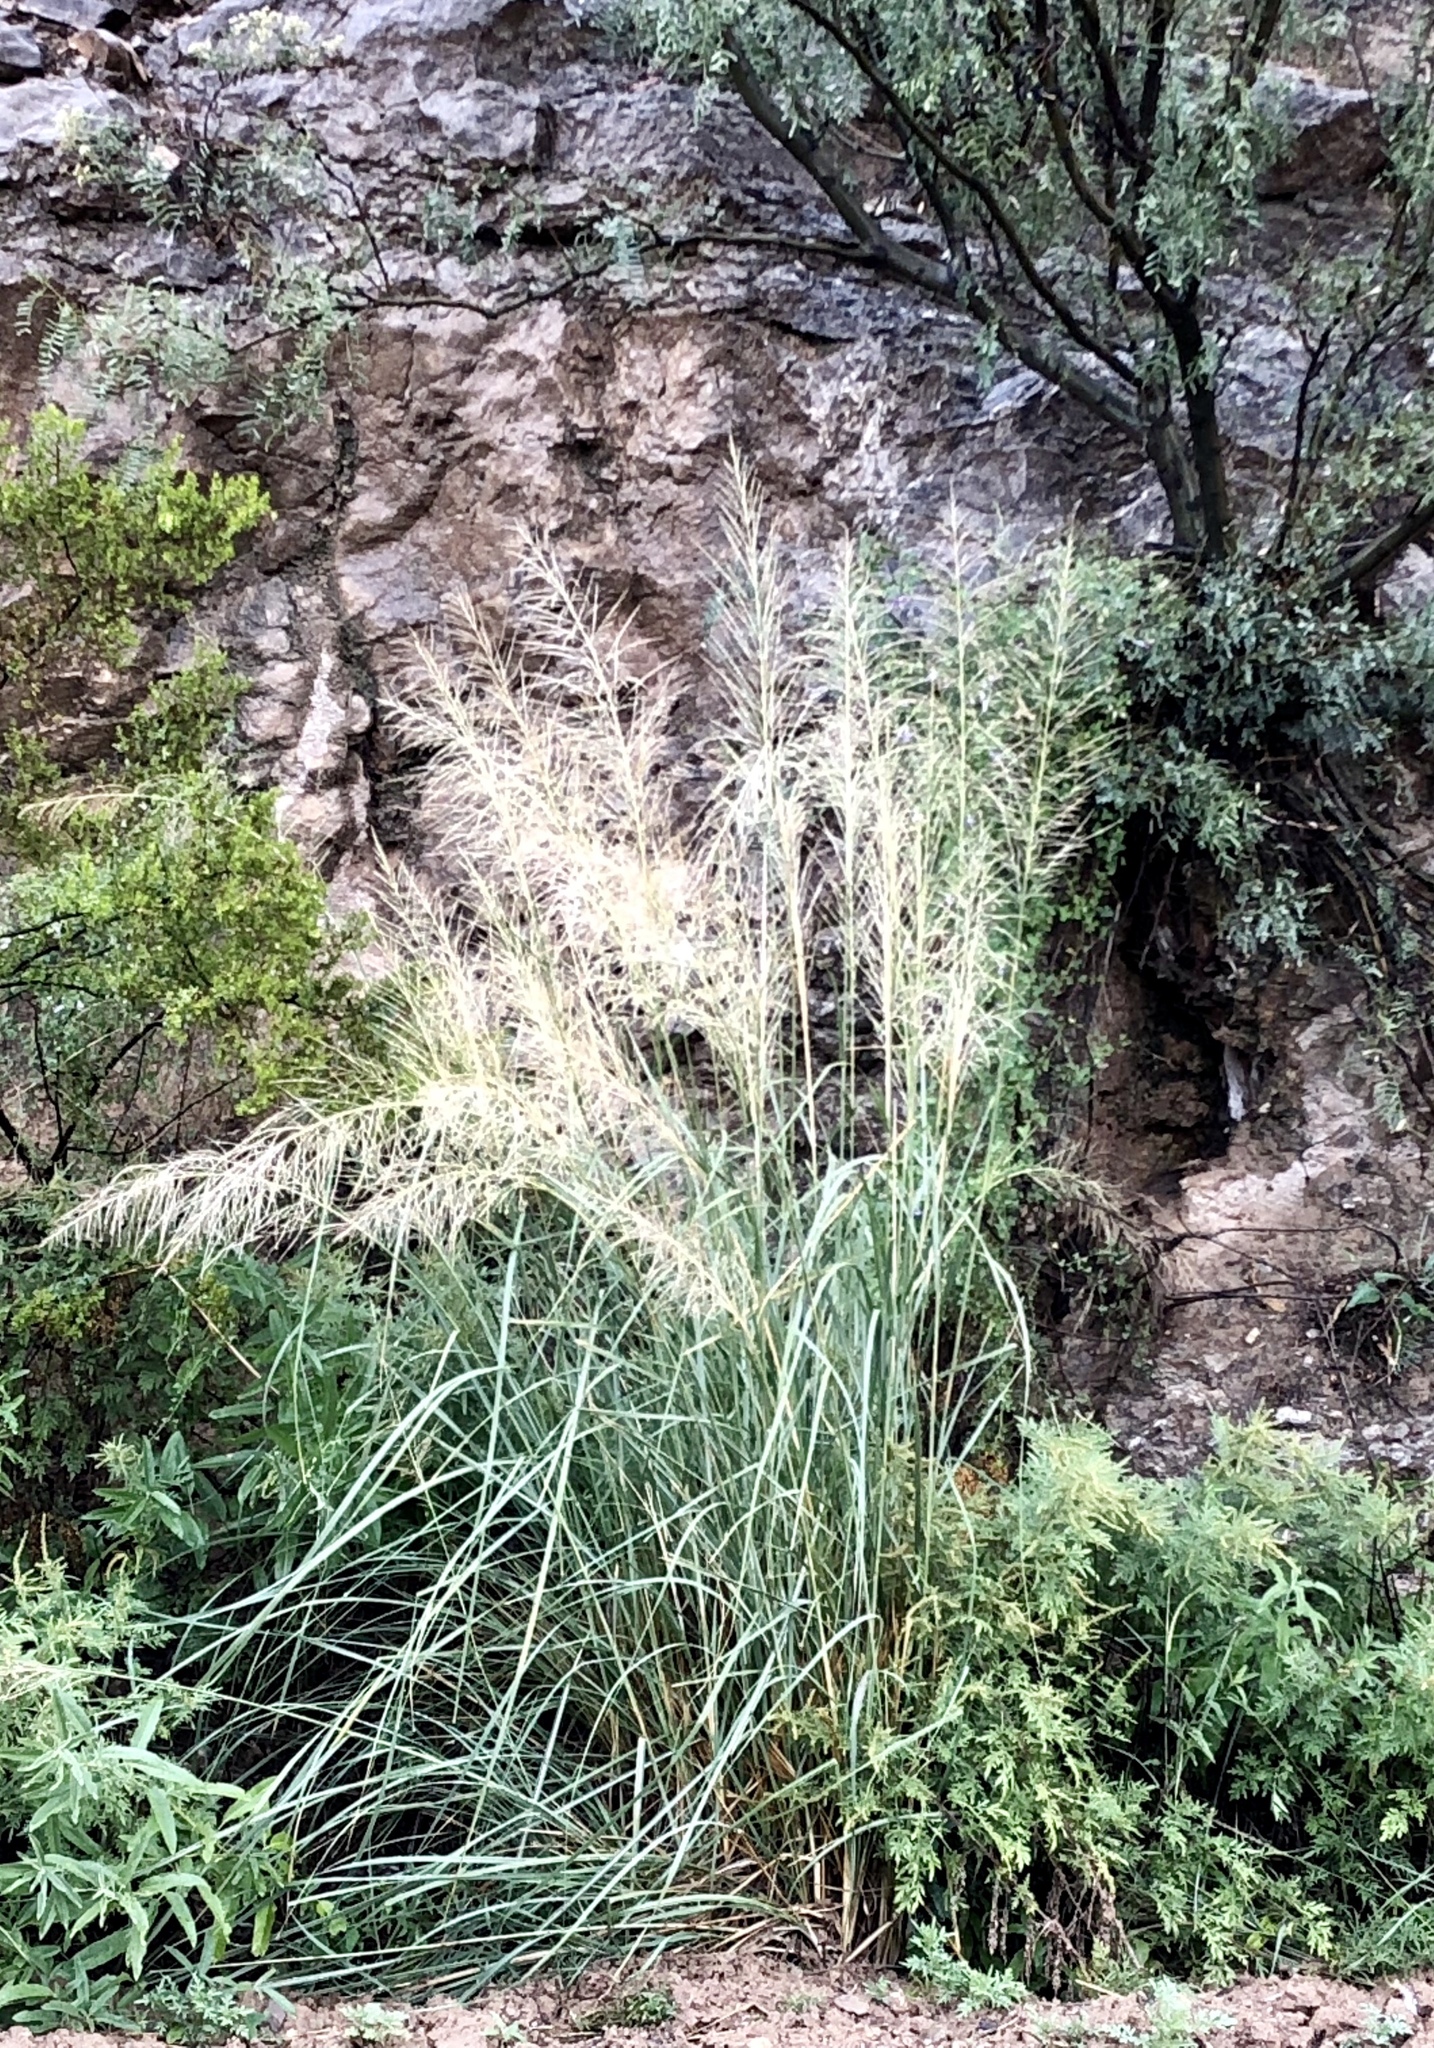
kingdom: Plantae
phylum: Tracheophyta
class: Liliopsida
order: Poales
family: Poaceae
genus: Sporobolus
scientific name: Sporobolus wrightii
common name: Big alkali sacaton
